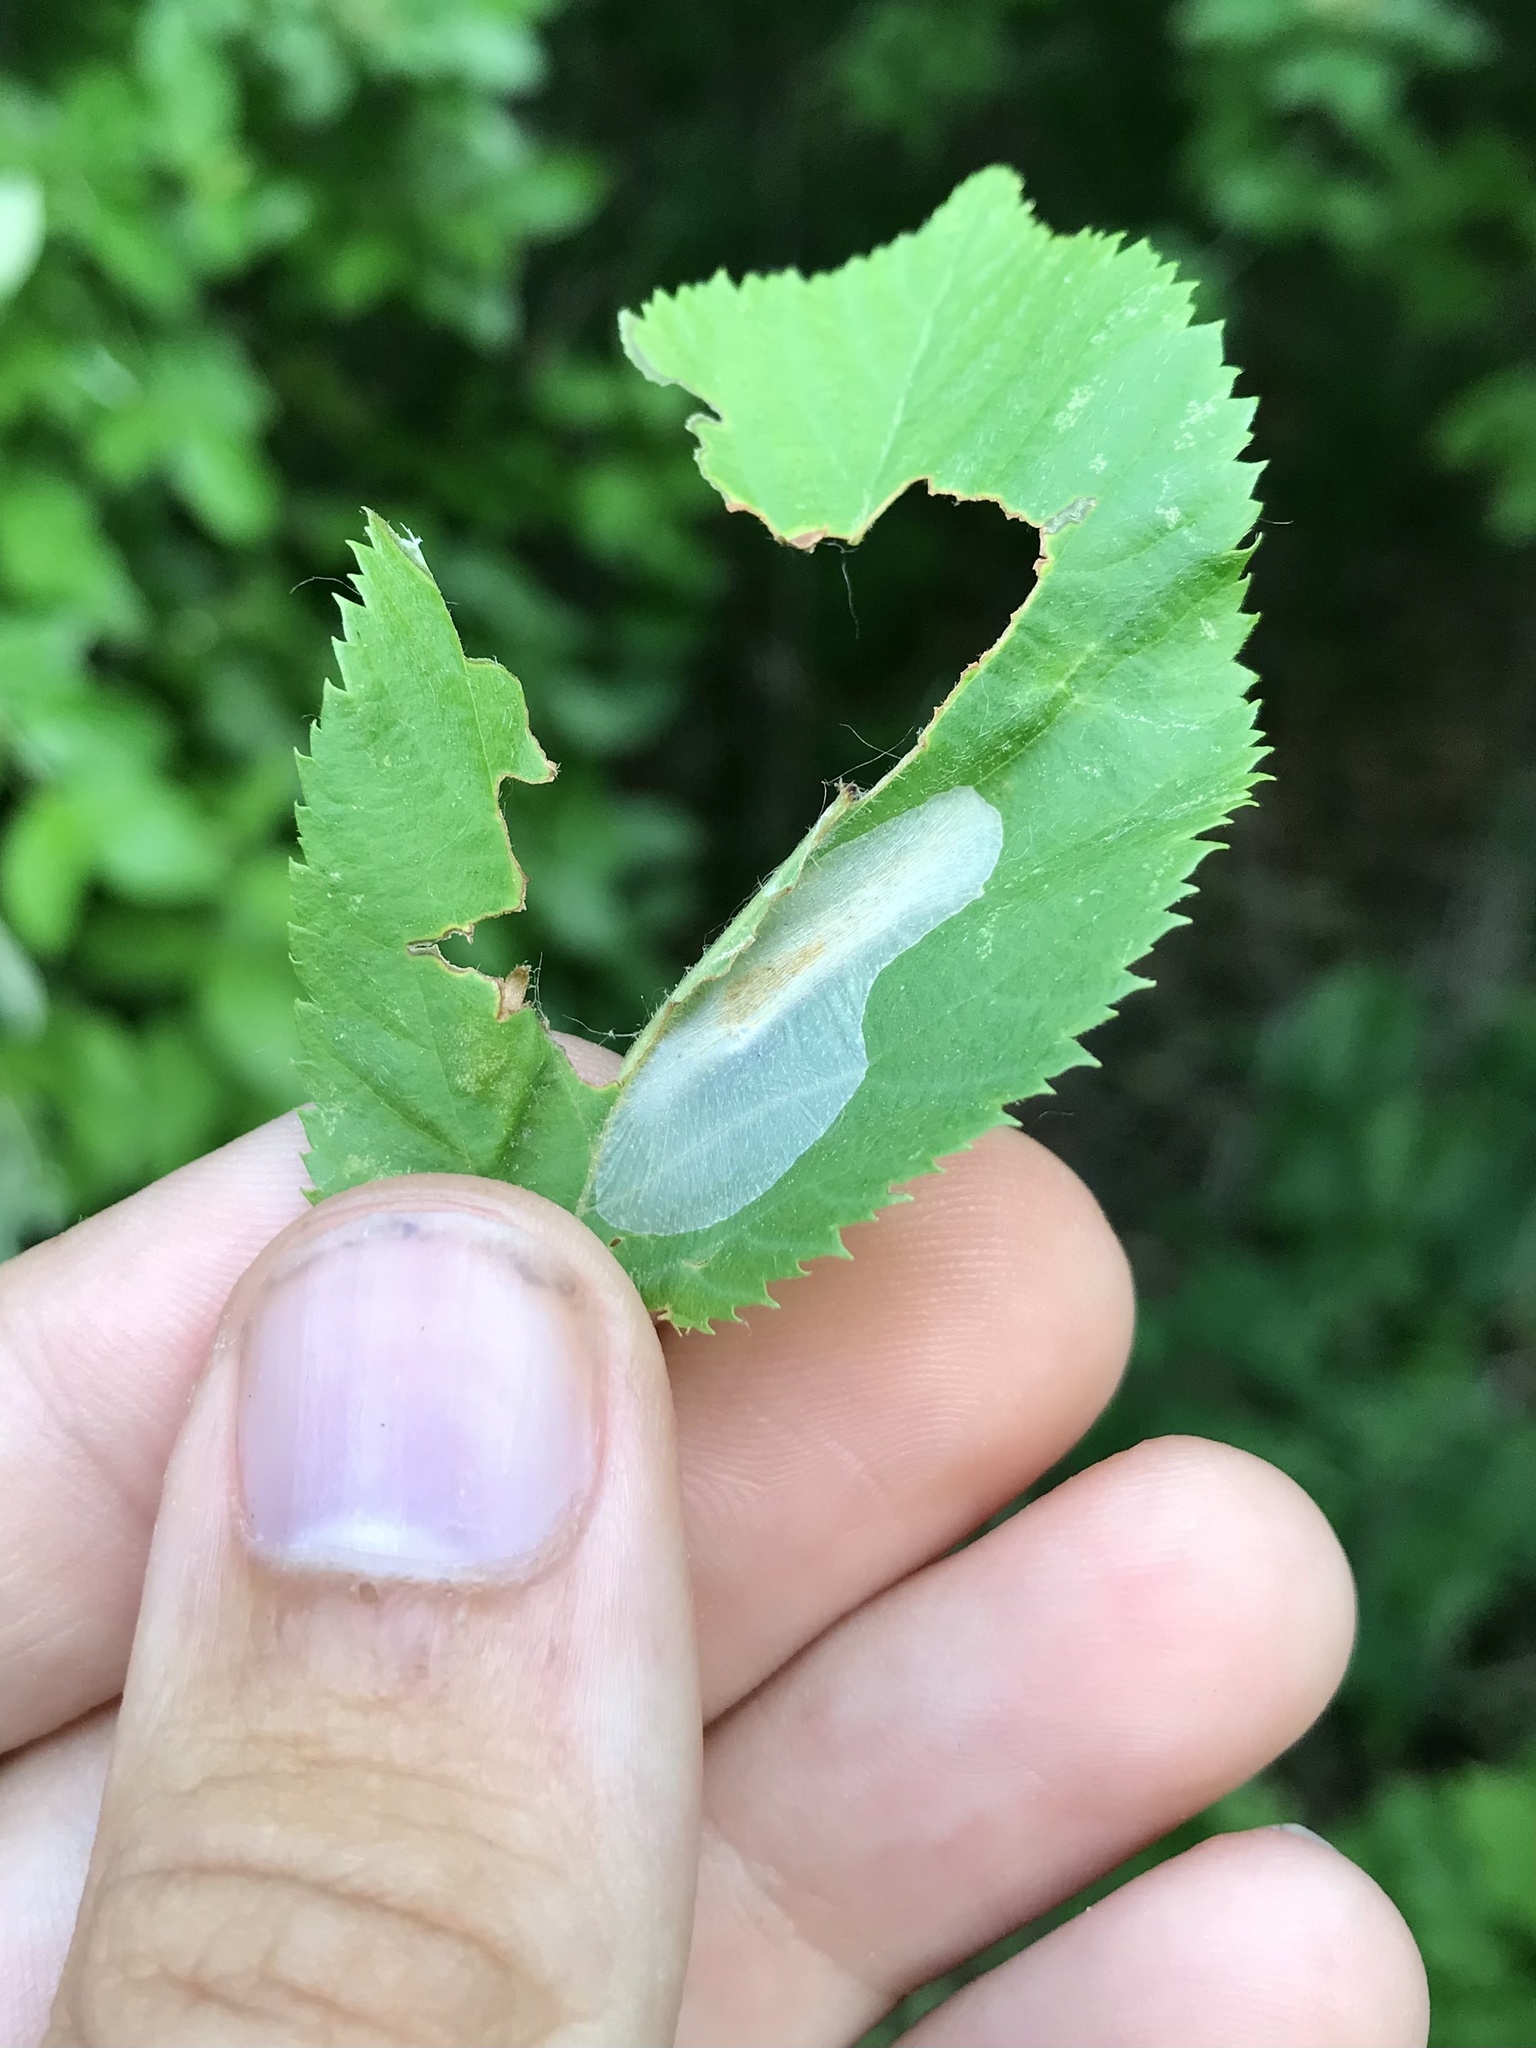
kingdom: Animalia
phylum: Arthropoda
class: Insecta
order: Lepidoptera
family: Gracillariidae
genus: Phyllonorycter
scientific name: Phyllonorycter tritaenianella
